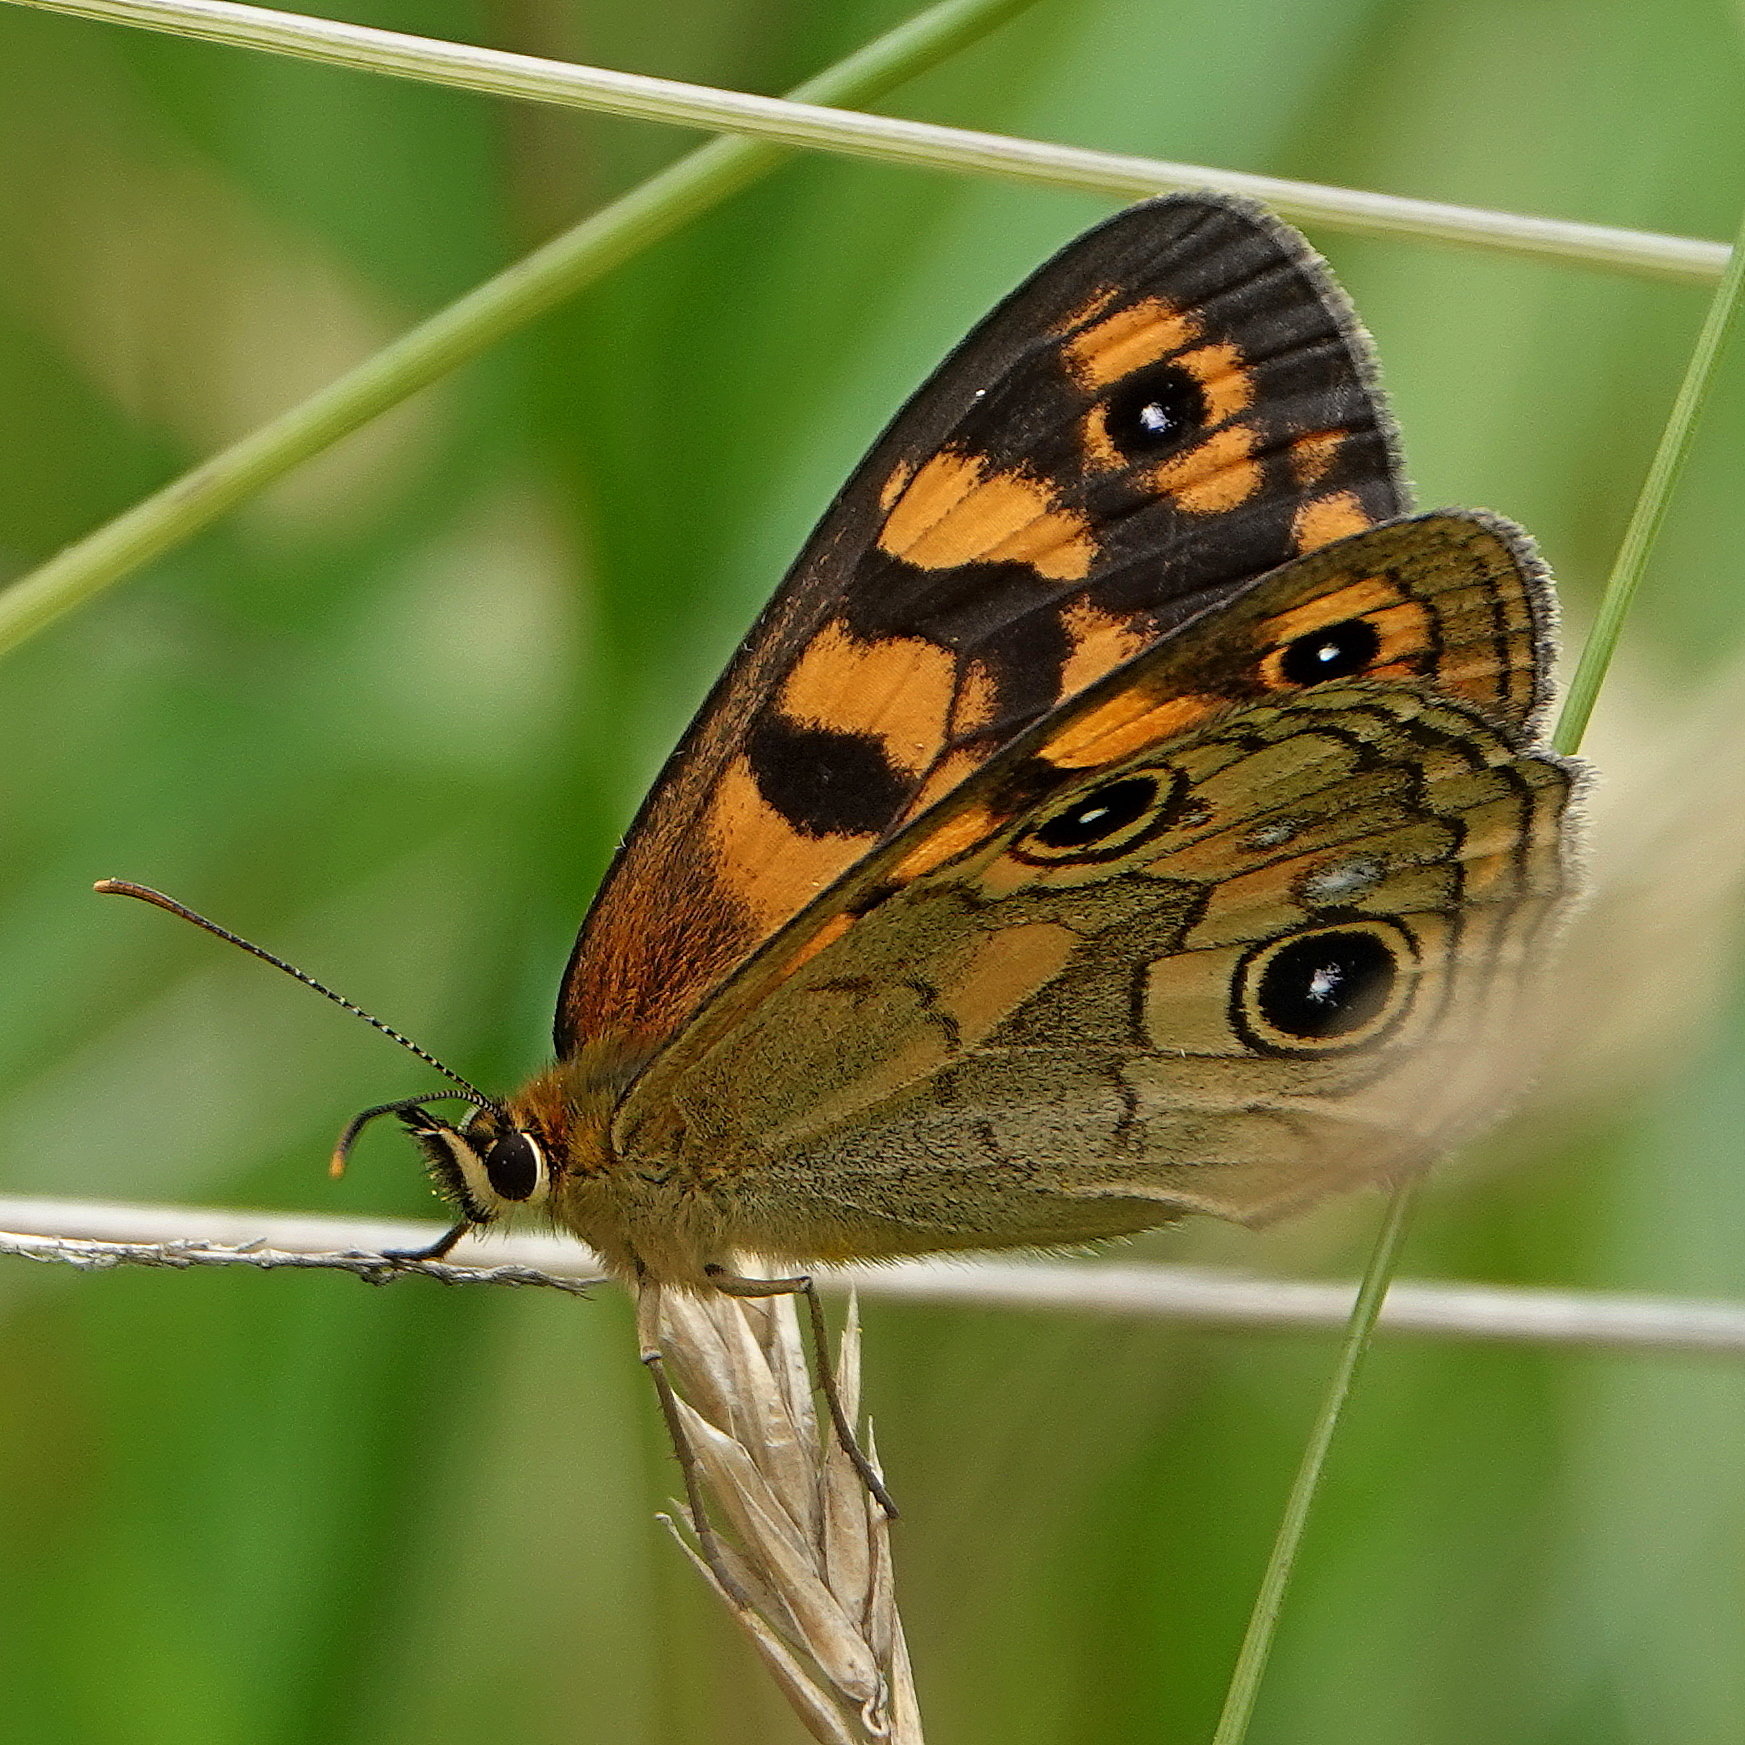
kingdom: Animalia
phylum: Arthropoda
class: Insecta
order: Lepidoptera
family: Nymphalidae
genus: Heteronympha
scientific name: Heteronympha cordace
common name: Bright-eyed brown
